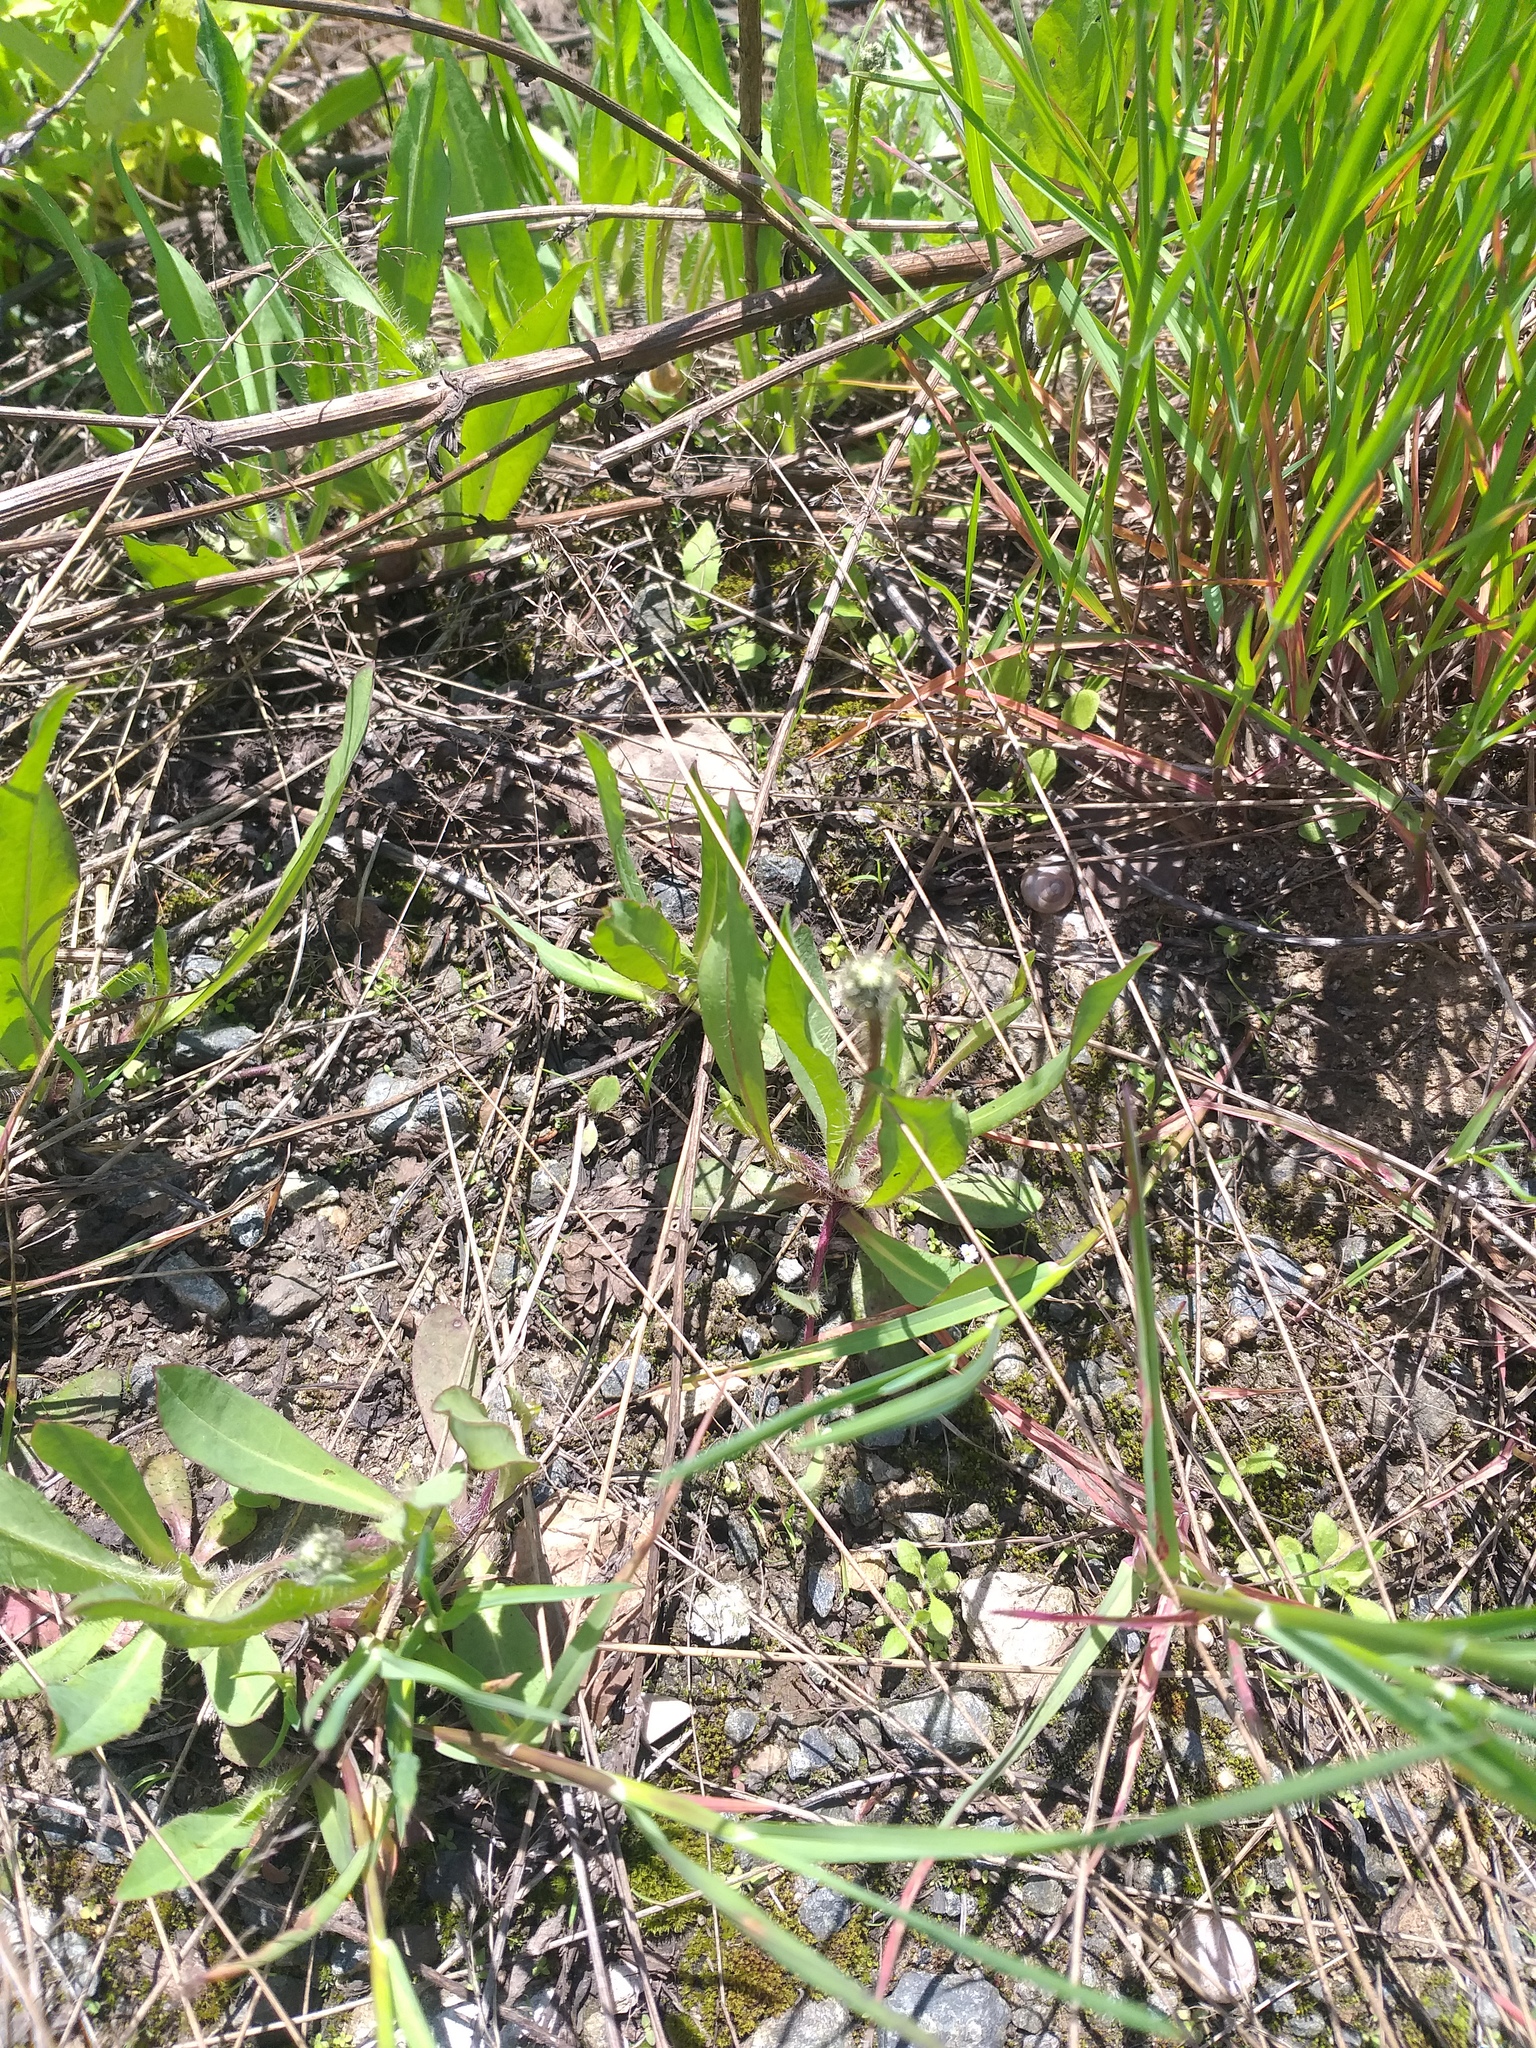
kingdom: Plantae
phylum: Tracheophyta
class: Magnoliopsida
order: Asterales
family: Asteraceae
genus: Pilosella
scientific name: Pilosella
